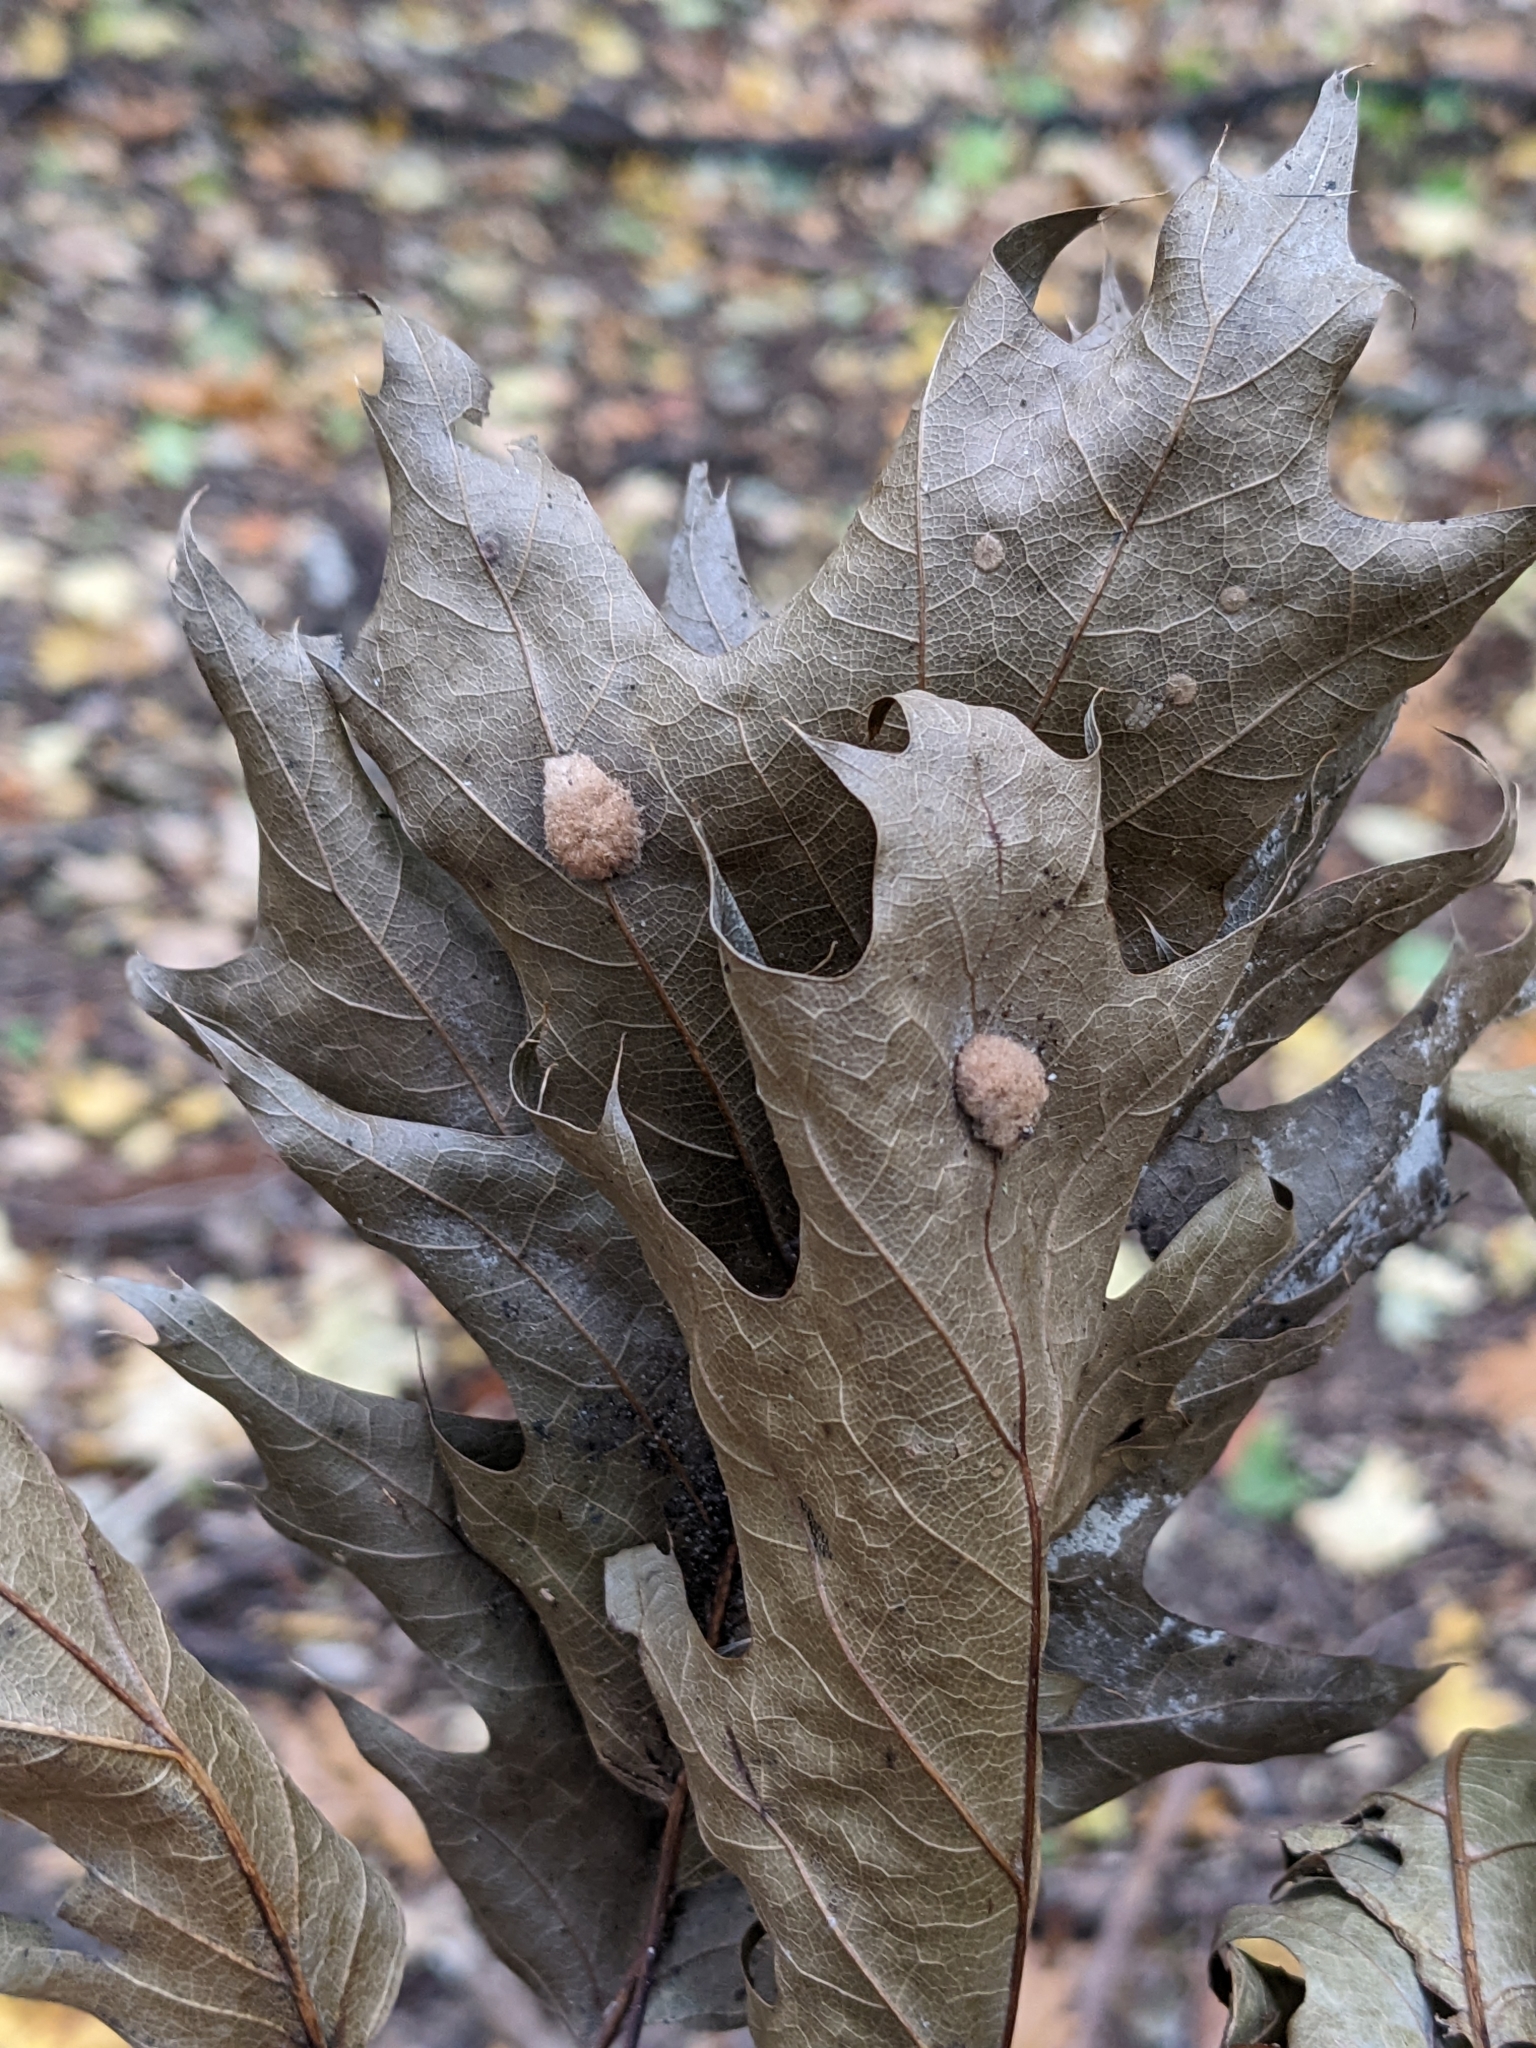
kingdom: Animalia
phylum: Arthropoda
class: Insecta
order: Hymenoptera
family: Cynipidae
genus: Callirhytis
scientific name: Callirhytis
